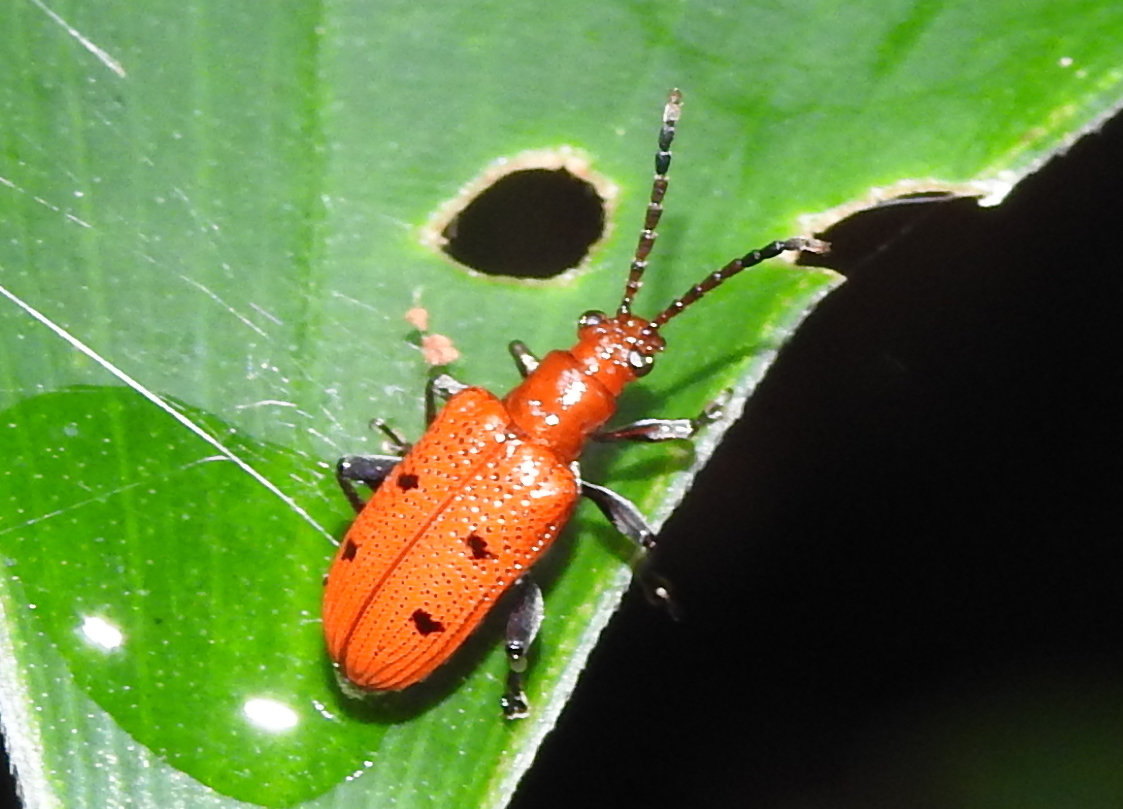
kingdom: Animalia
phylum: Arthropoda
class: Insecta
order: Coleoptera
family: Chrysomelidae
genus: Lema
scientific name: Lema
